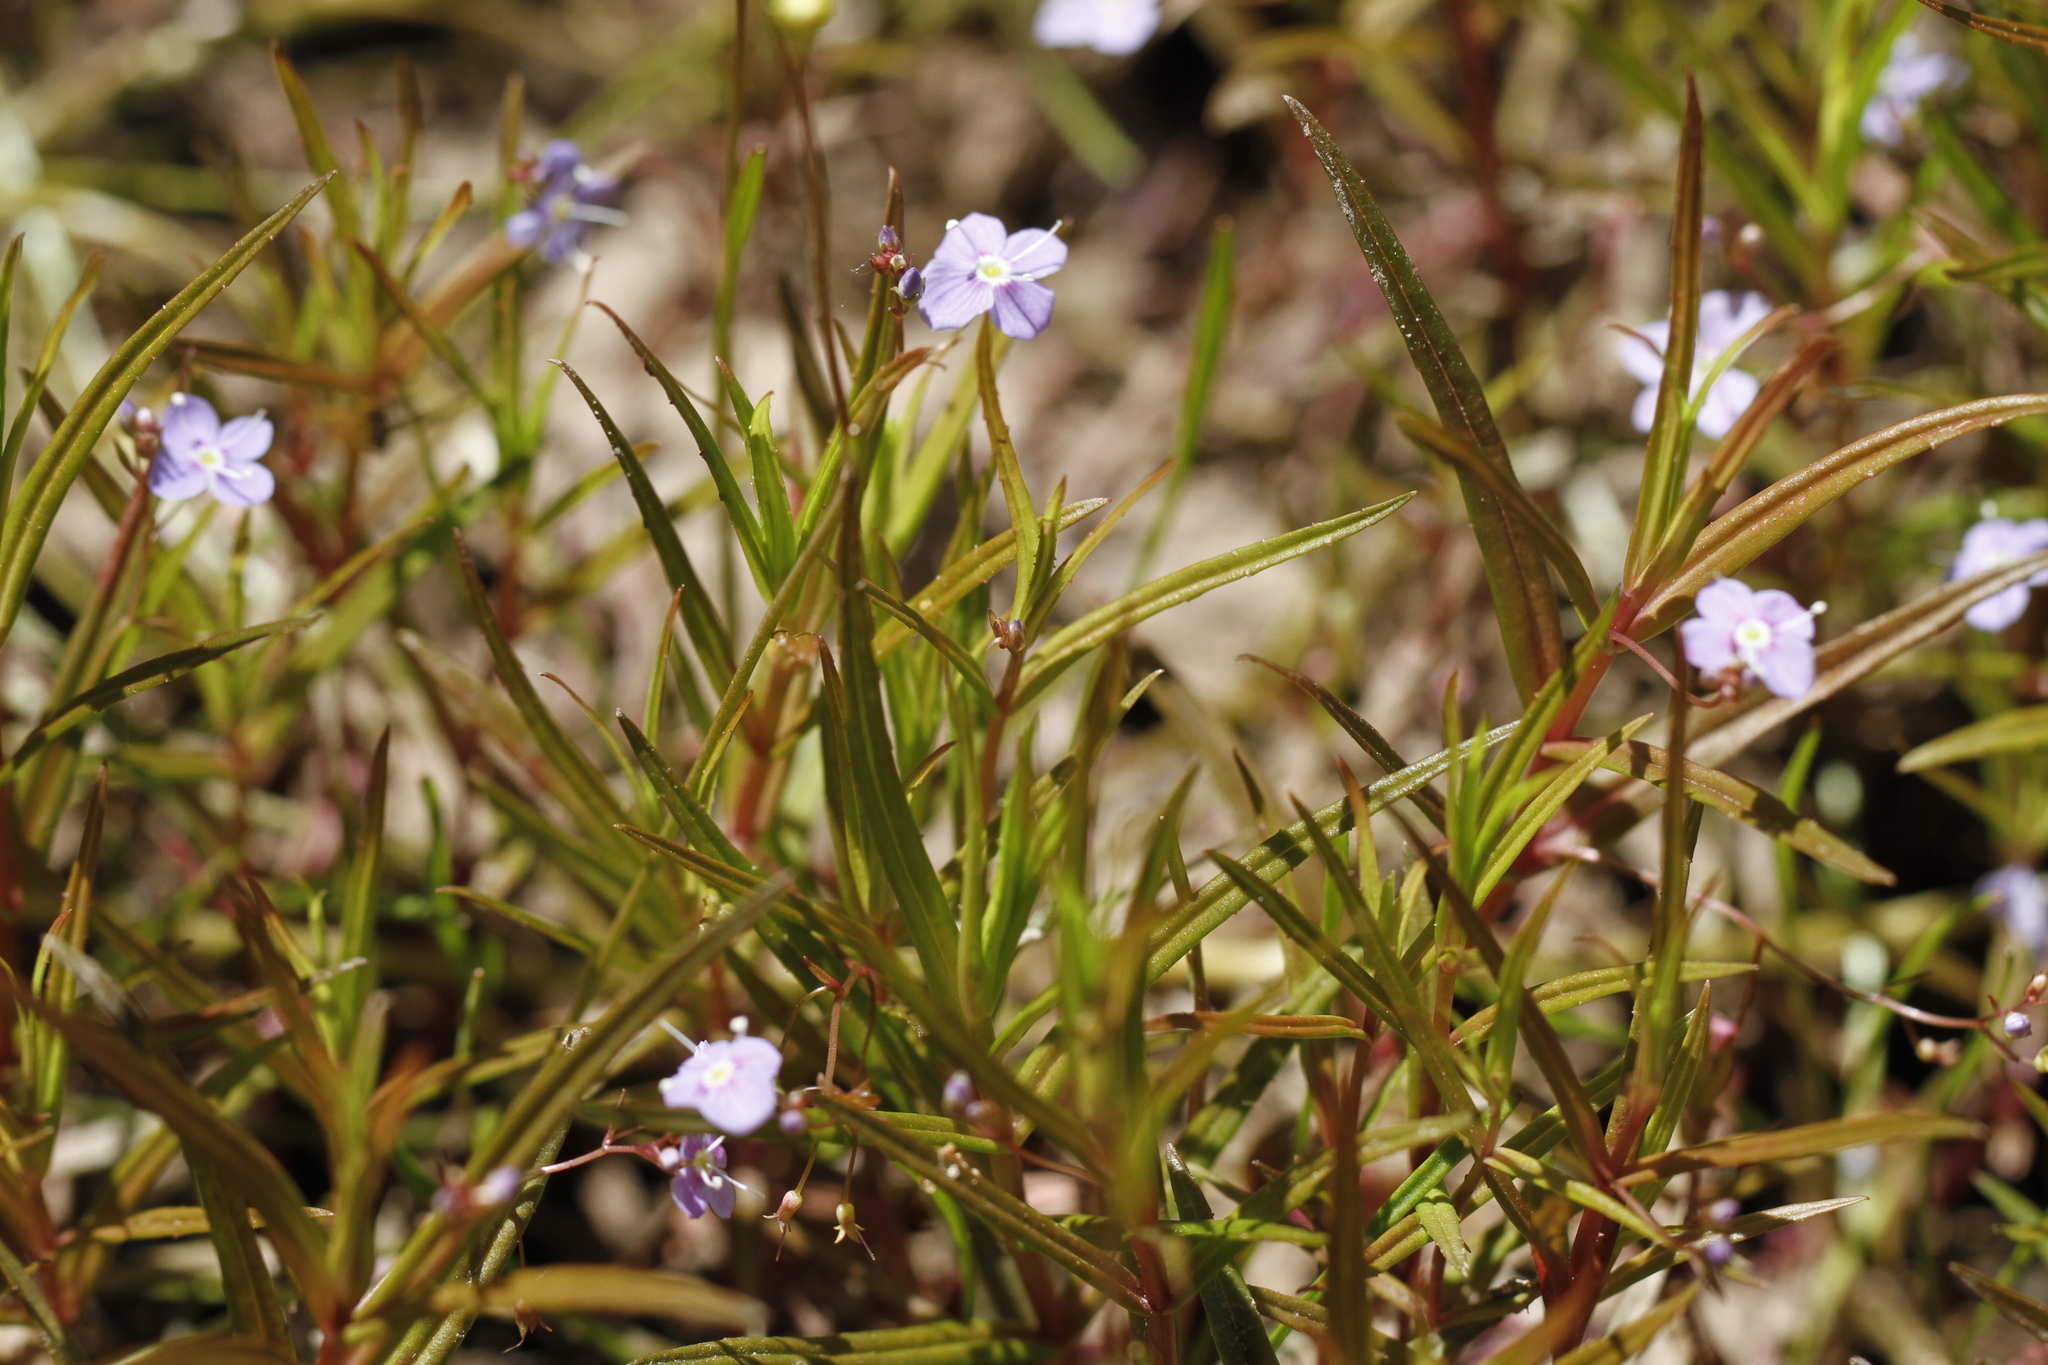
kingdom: Plantae
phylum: Tracheophyta
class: Magnoliopsida
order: Lamiales
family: Plantaginaceae
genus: Veronica
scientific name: Veronica scutellata
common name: Marsh speedwell
